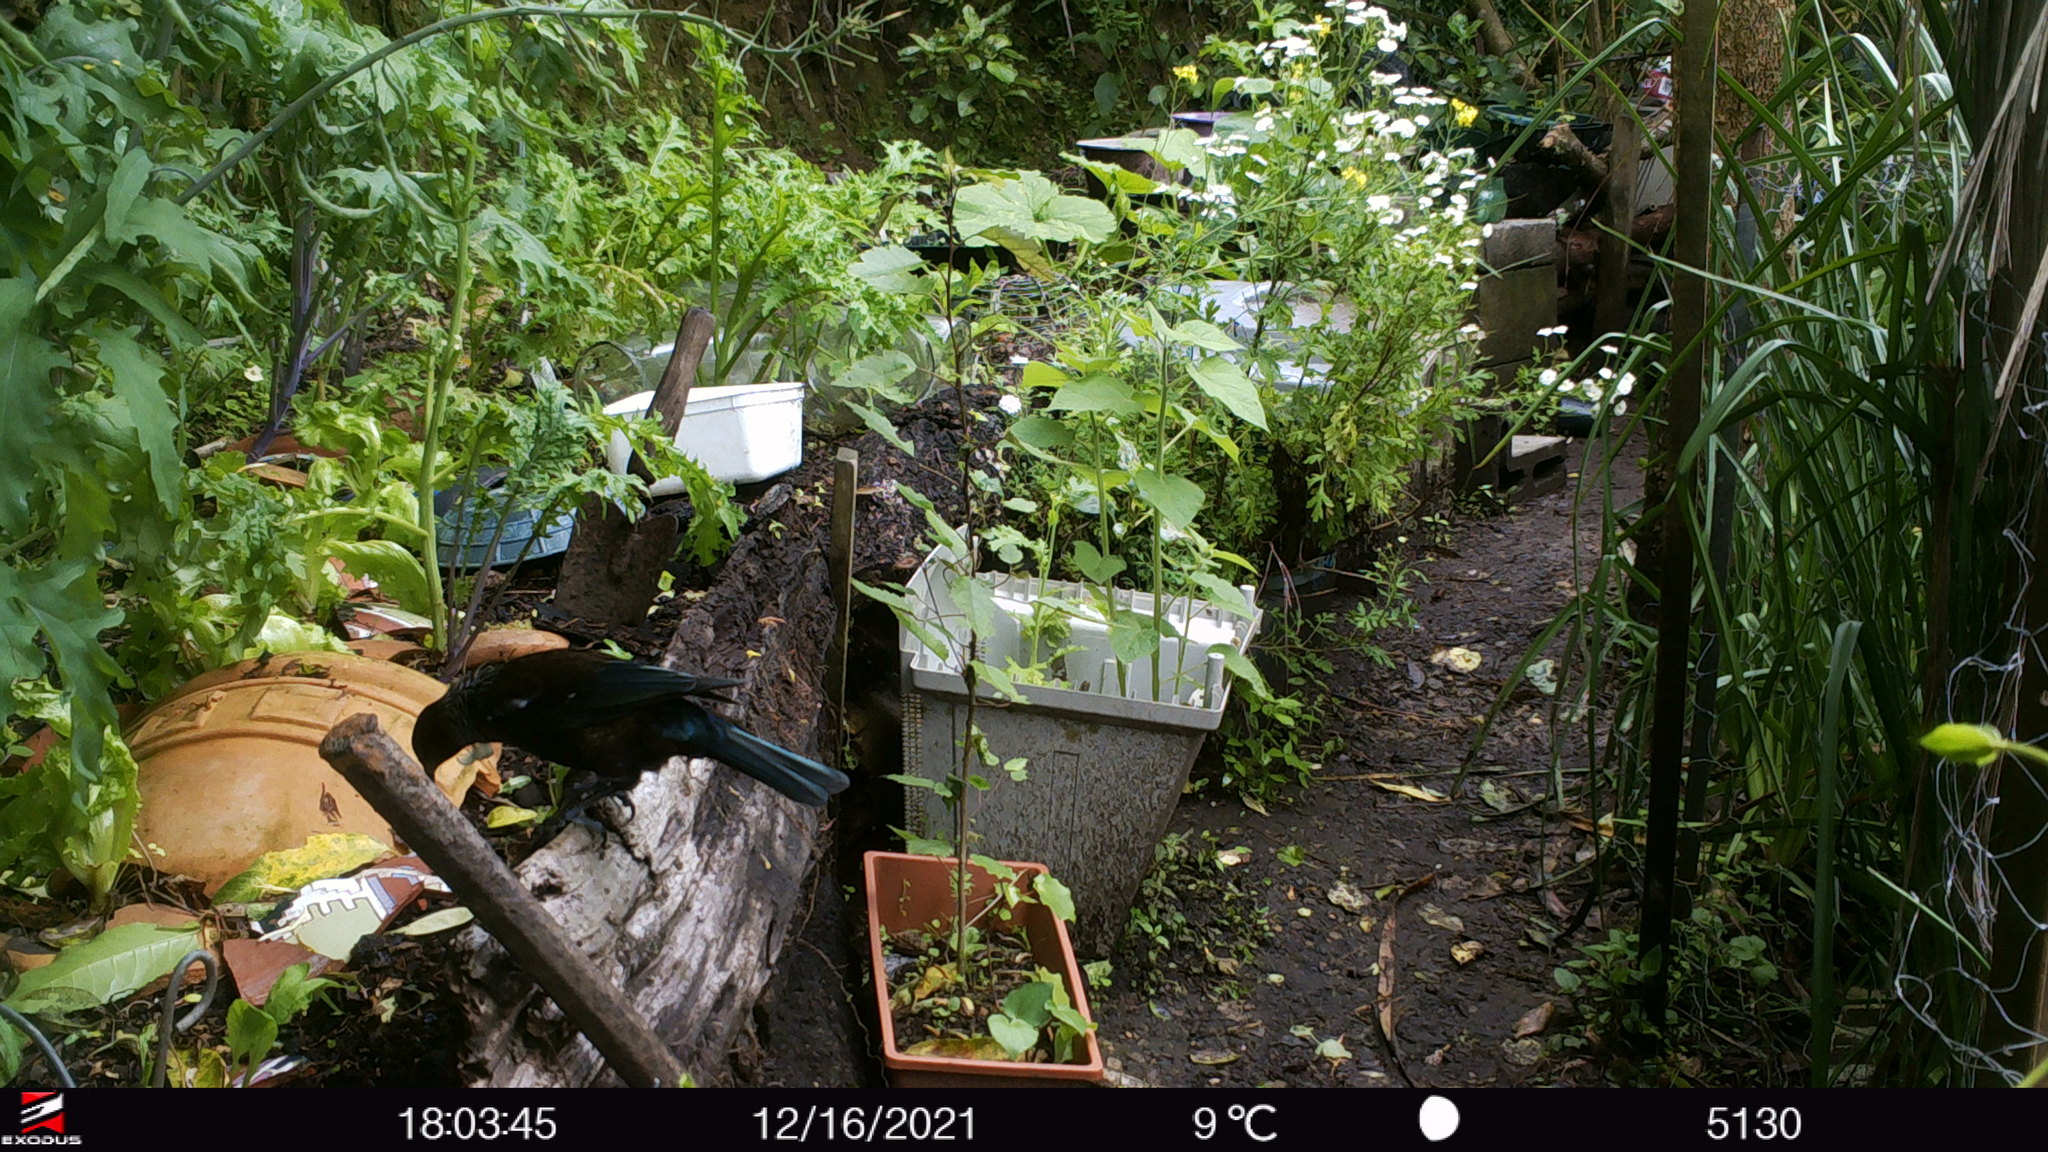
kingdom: Animalia
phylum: Chordata
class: Aves
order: Passeriformes
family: Meliphagidae
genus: Prosthemadera
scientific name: Prosthemadera novaeseelandiae
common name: Tui
